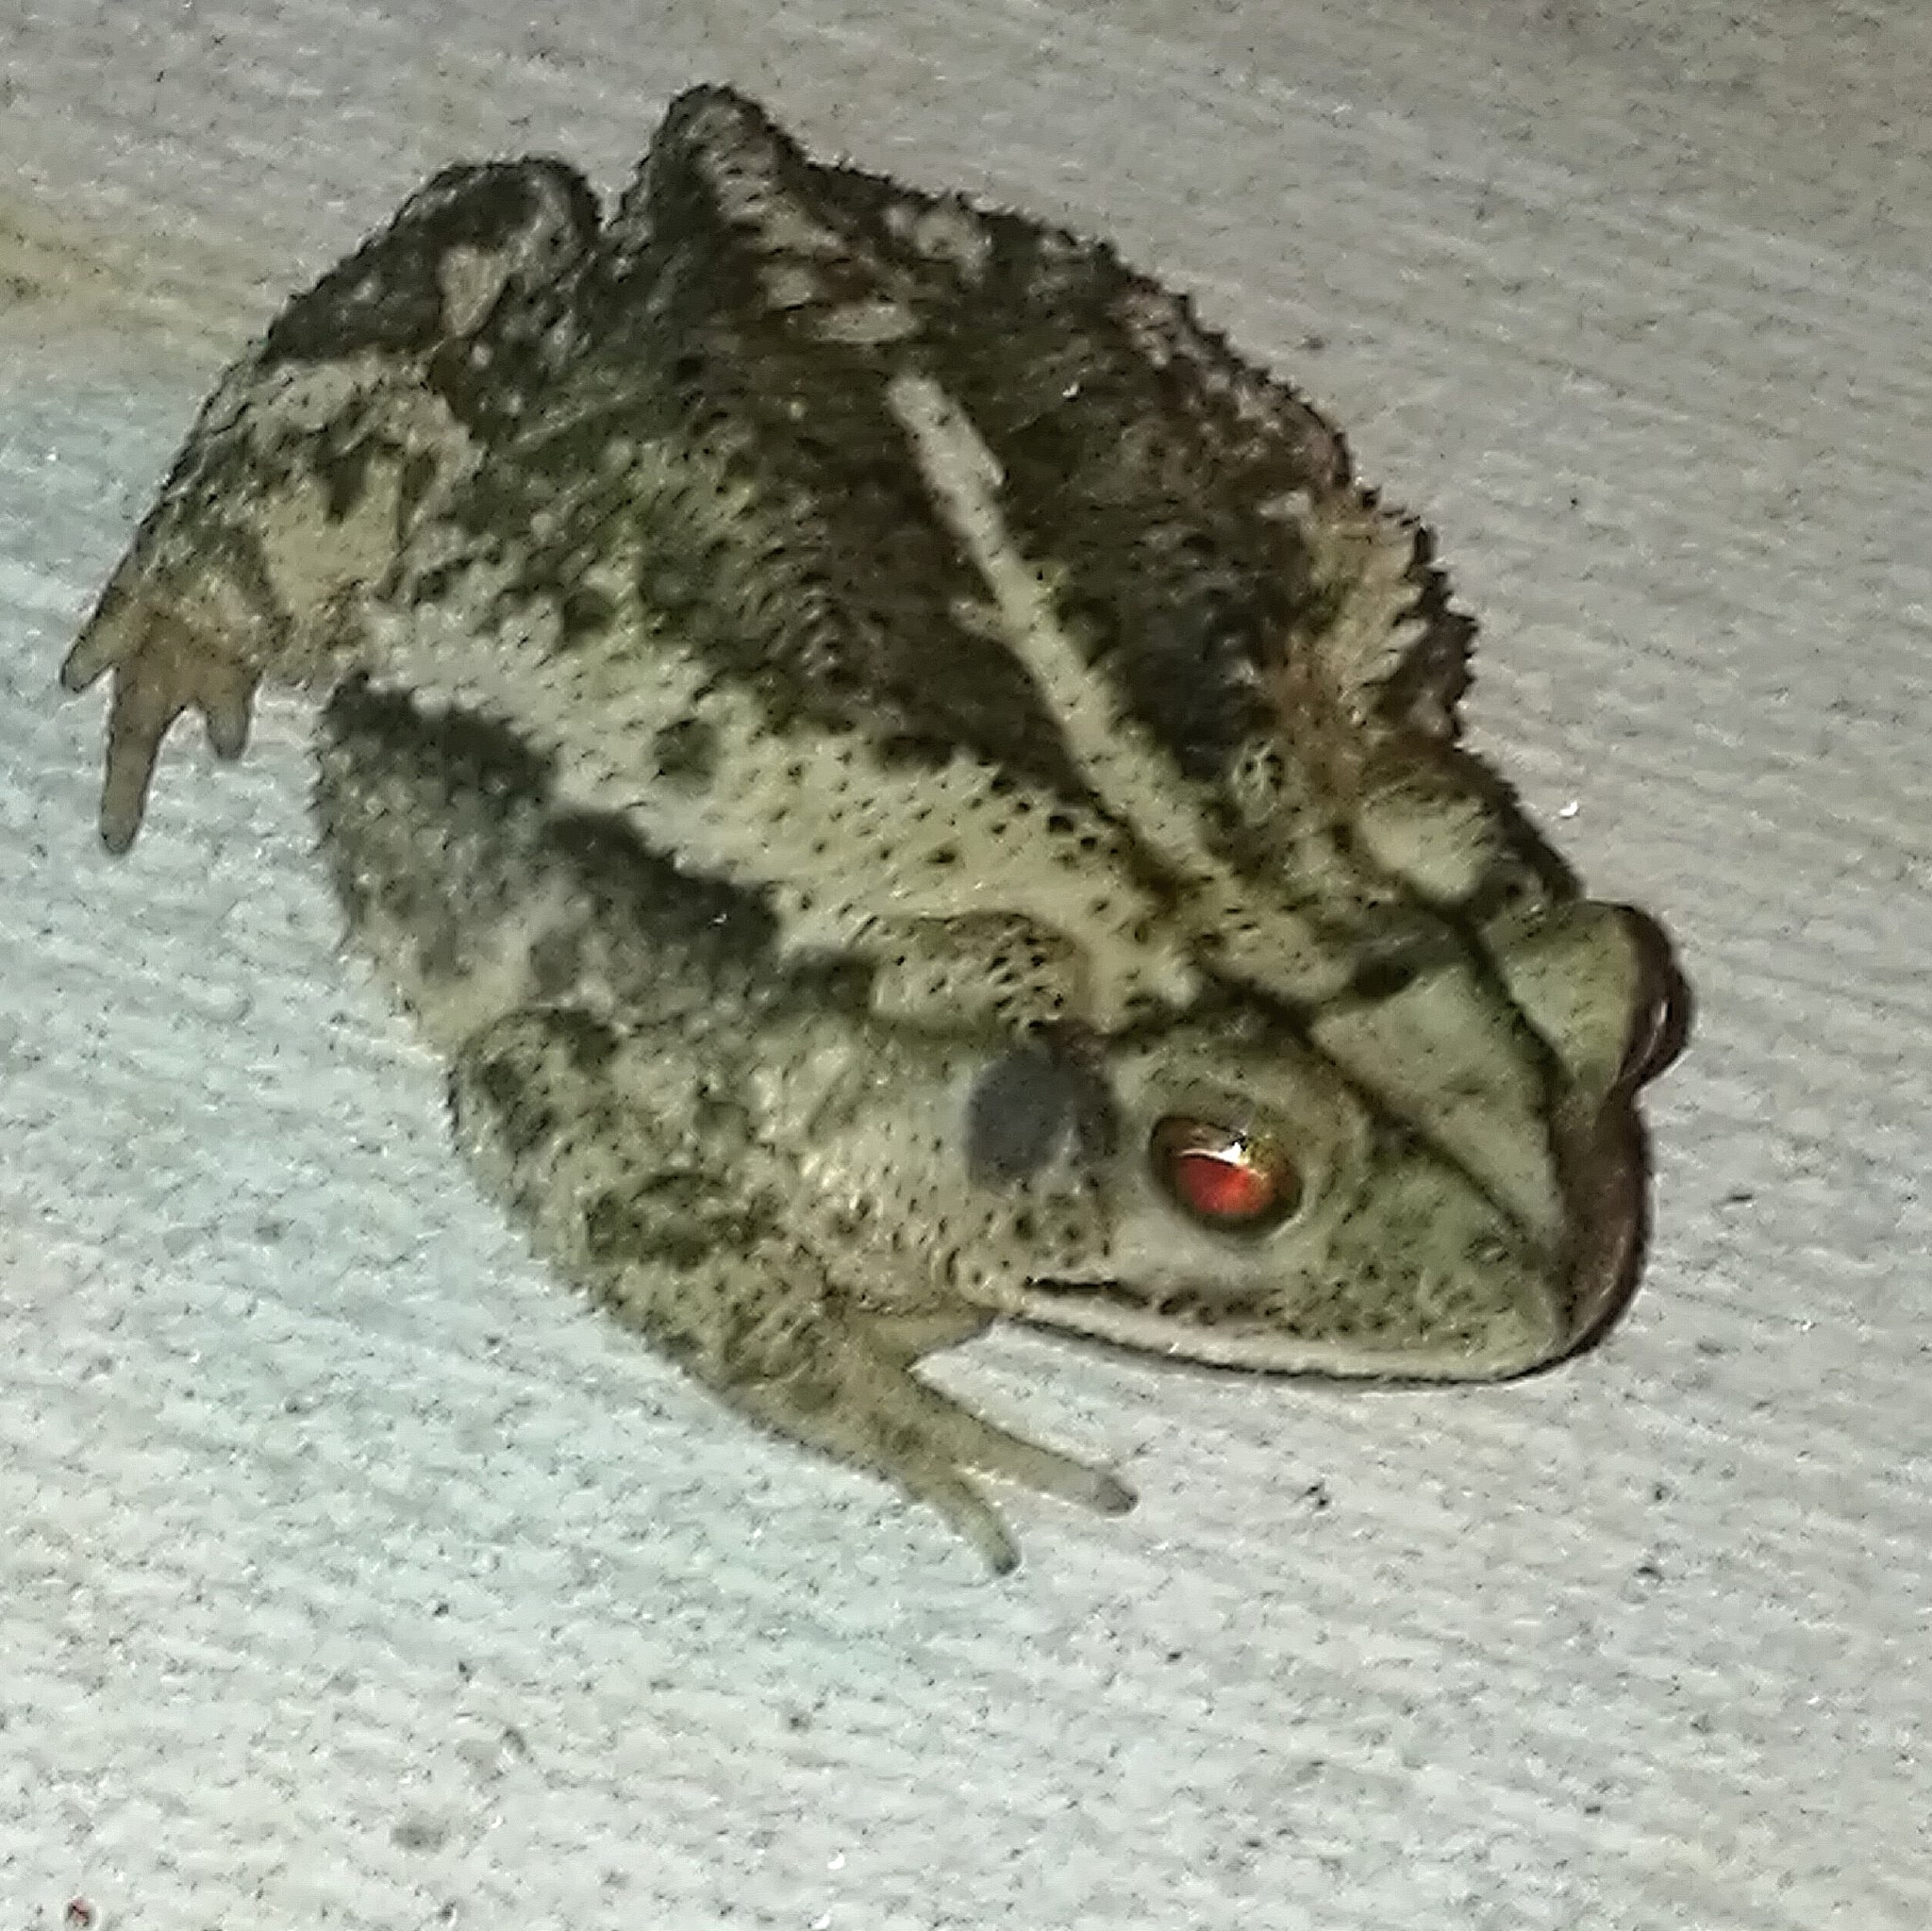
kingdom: Animalia
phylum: Chordata
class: Amphibia
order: Anura
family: Bufonidae
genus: Incilius
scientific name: Incilius nebulifer
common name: Gulf coast toad
